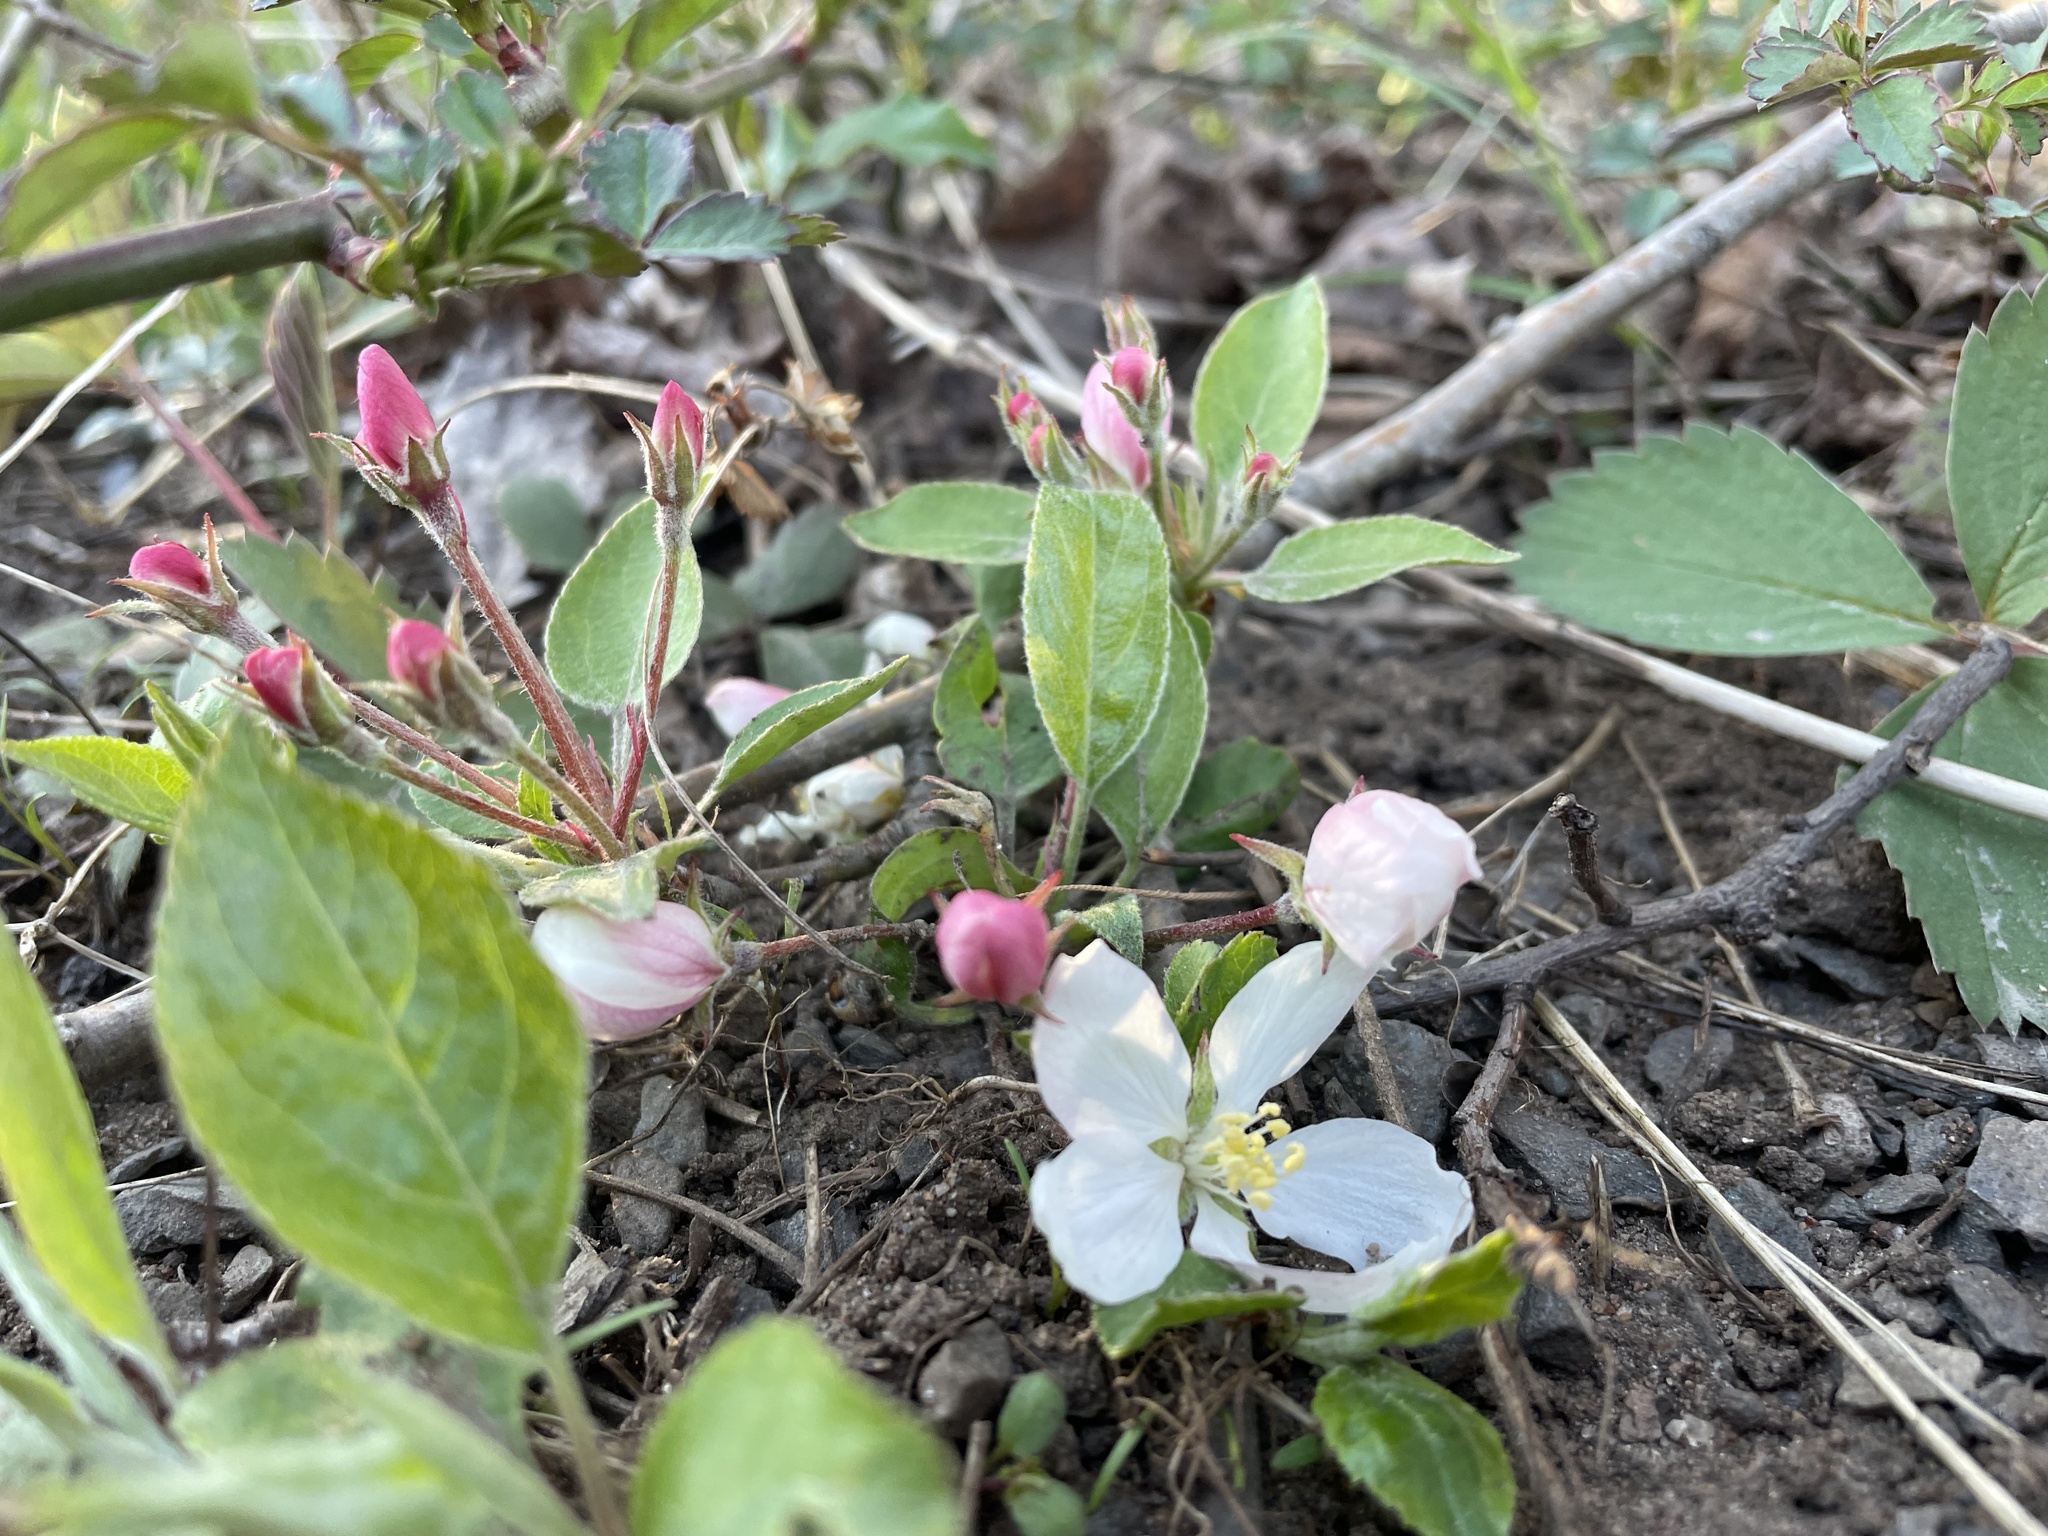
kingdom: Plantae
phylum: Tracheophyta
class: Magnoliopsida
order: Rosales
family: Rosaceae
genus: Malus
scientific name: Malus domestica
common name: Apple
